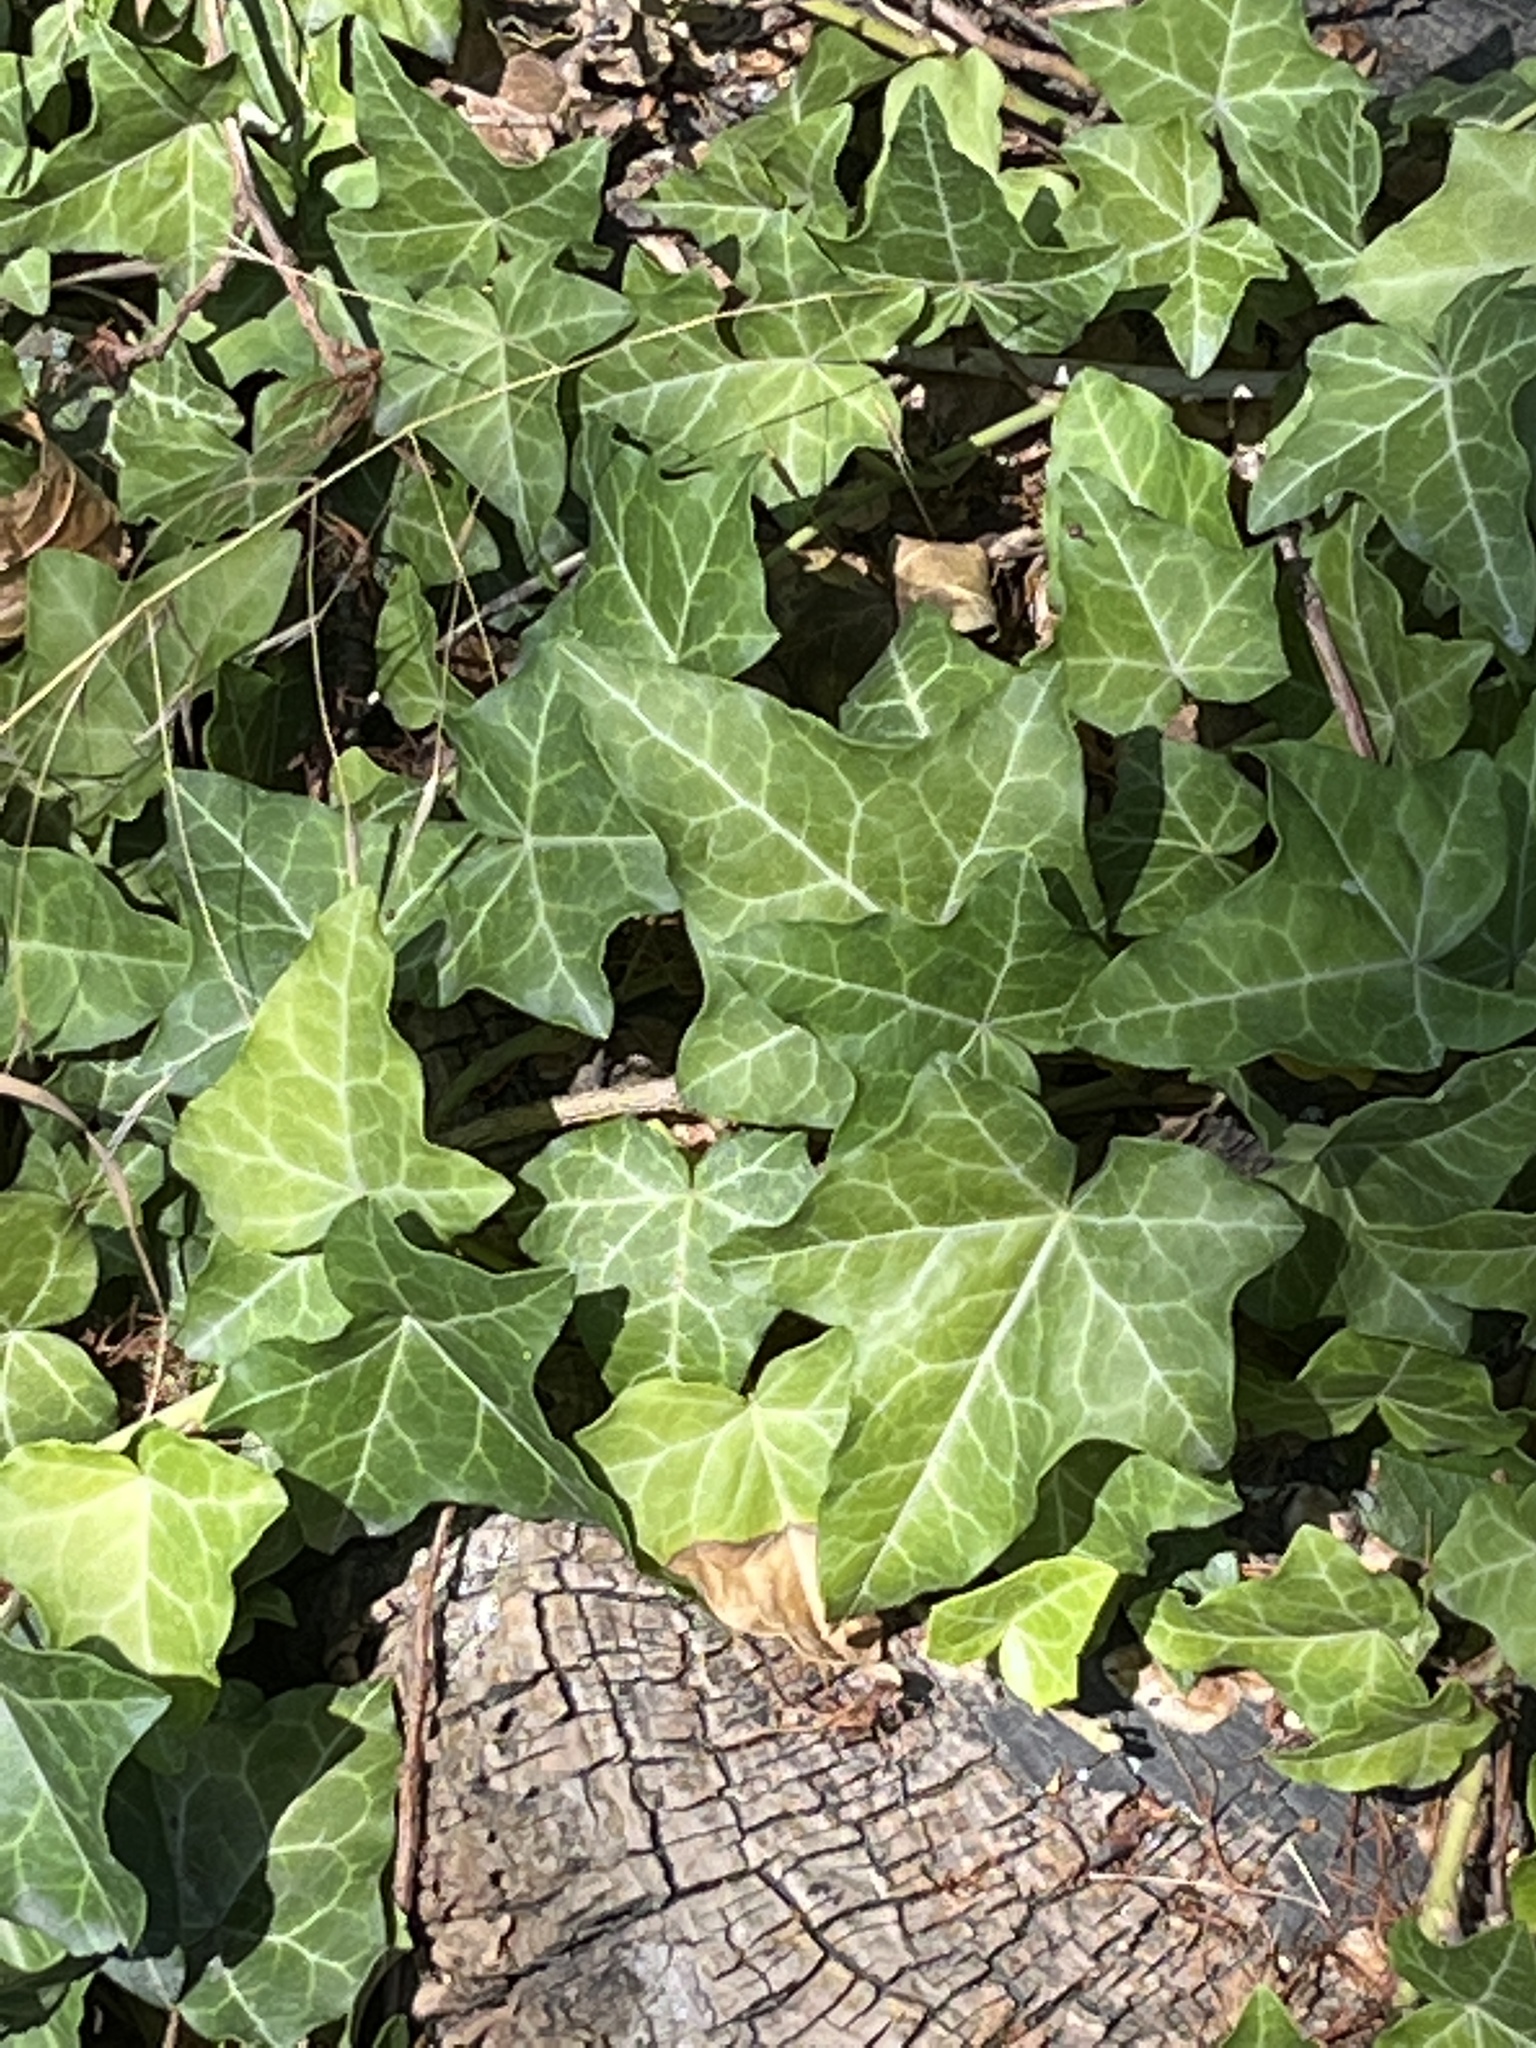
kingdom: Plantae
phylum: Tracheophyta
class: Magnoliopsida
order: Apiales
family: Araliaceae
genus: Hedera
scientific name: Hedera helix
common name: Ivy
